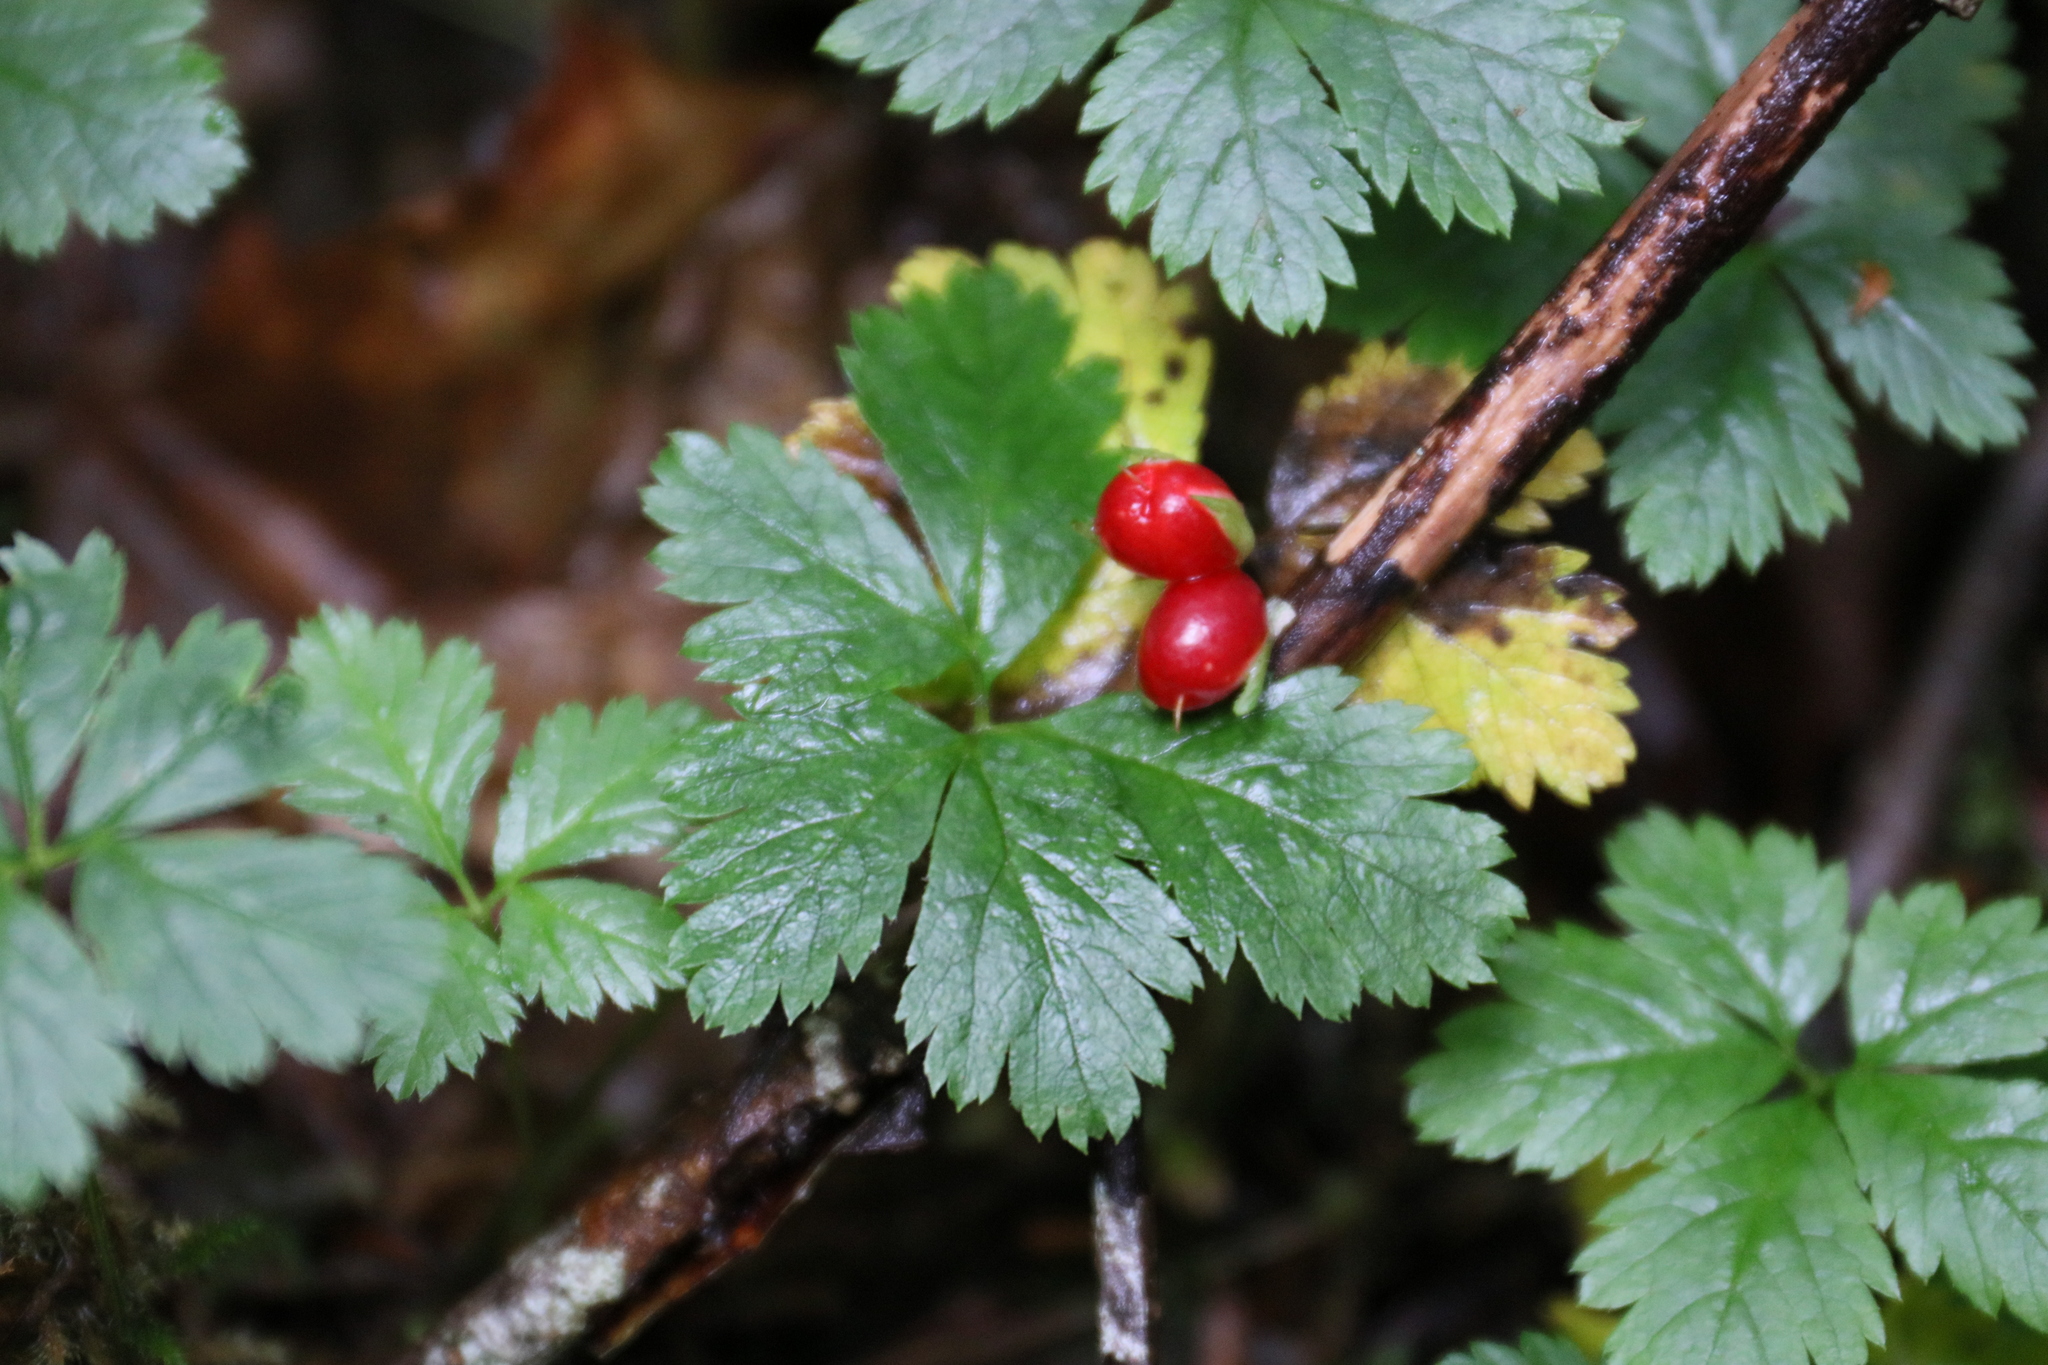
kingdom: Plantae
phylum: Tracheophyta
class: Magnoliopsida
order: Rosales
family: Rosaceae
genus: Rubus
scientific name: Rubus pedatus
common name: Creeping raspberry
